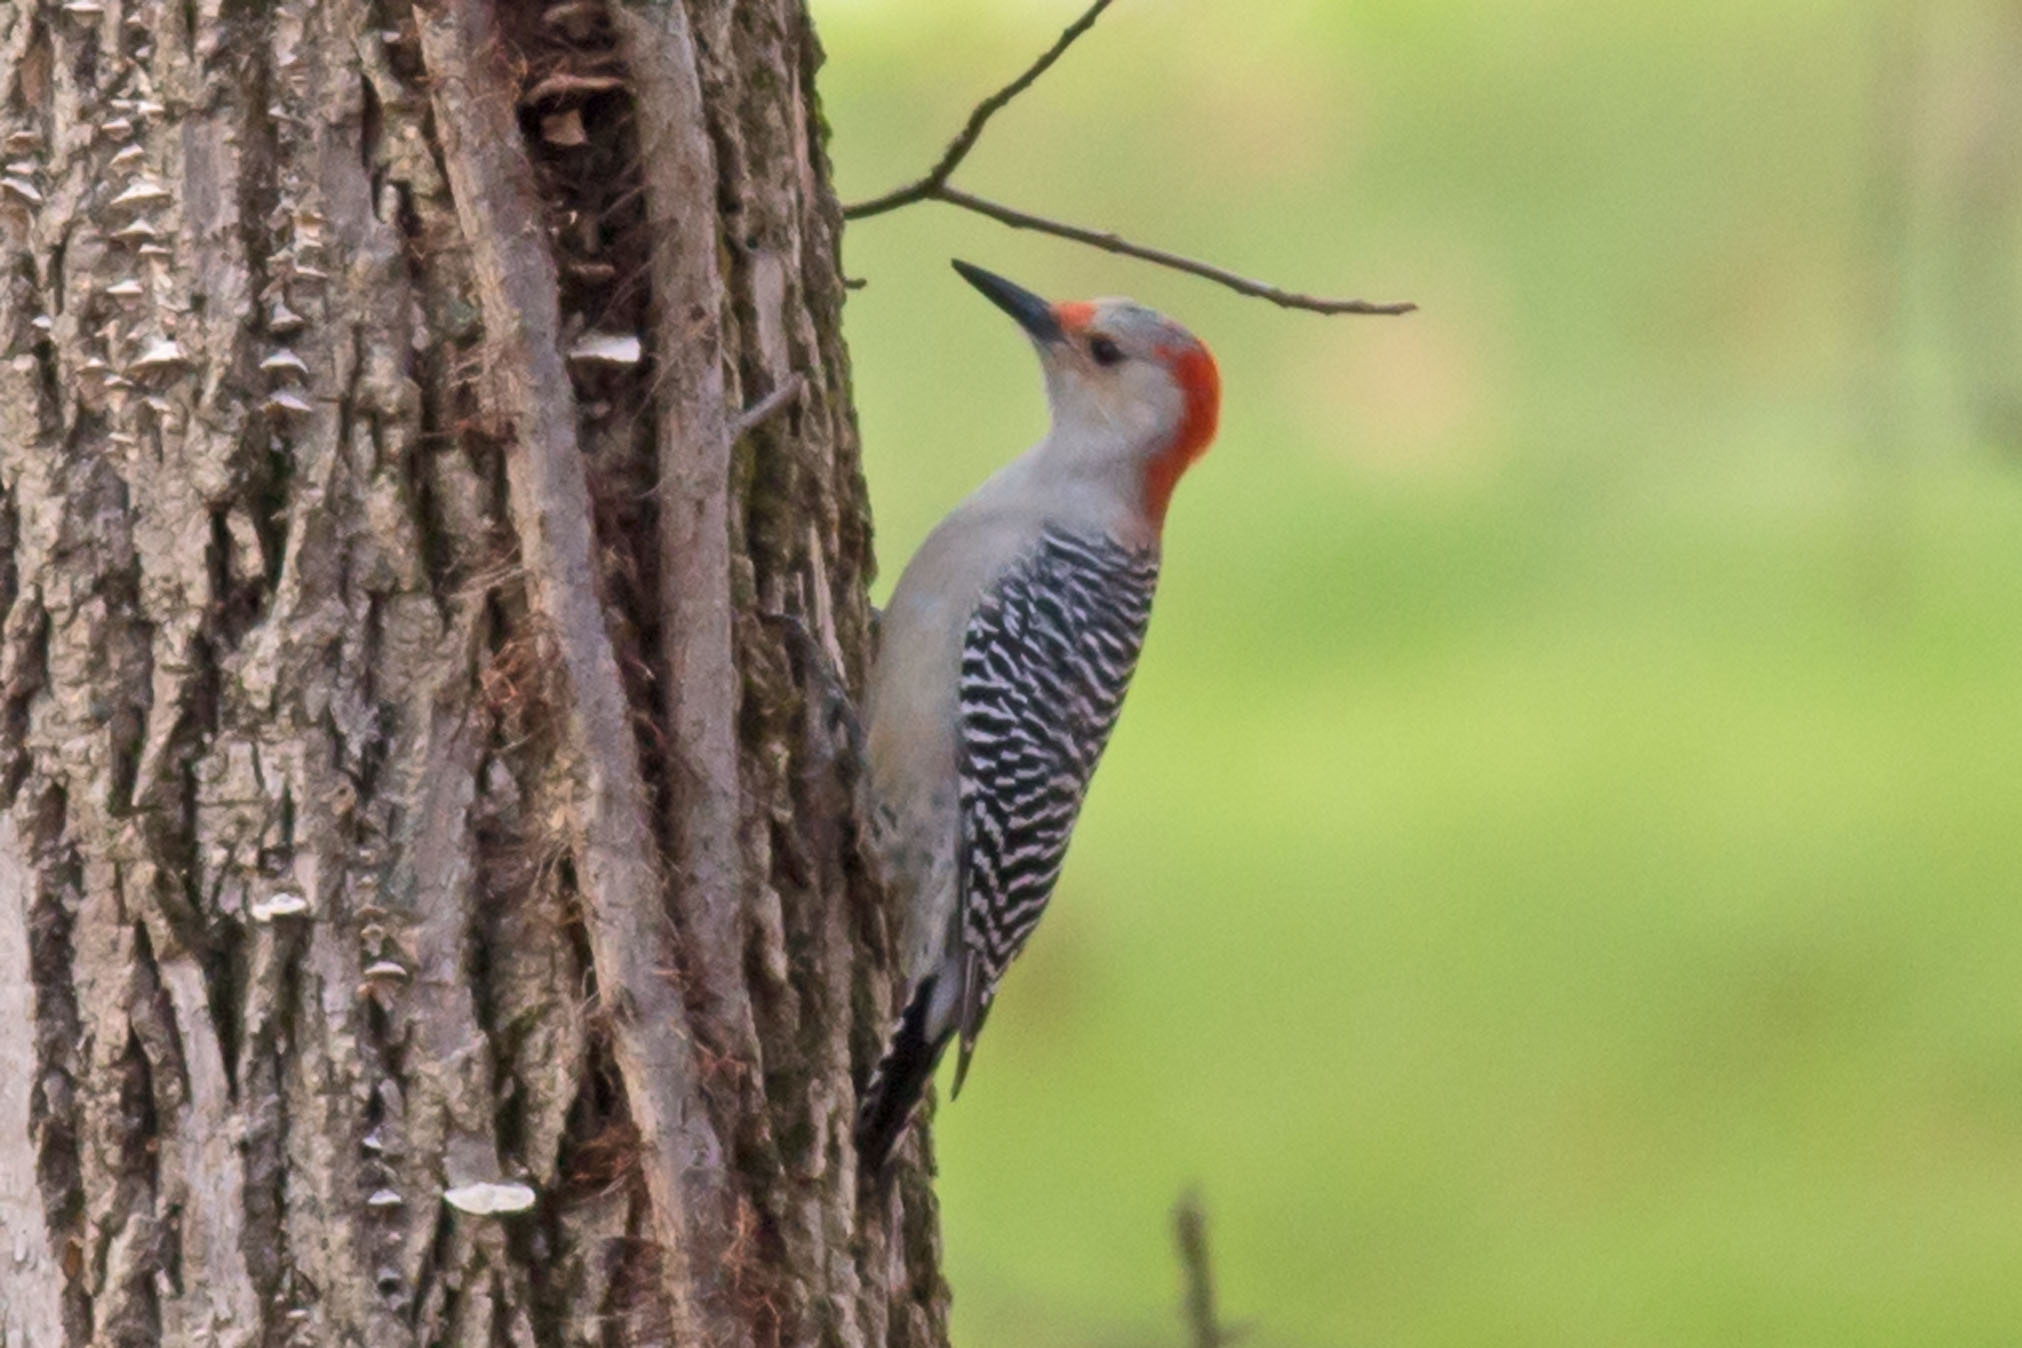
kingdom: Animalia
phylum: Chordata
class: Aves
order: Piciformes
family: Picidae
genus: Melanerpes
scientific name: Melanerpes carolinus
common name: Red-bellied woodpecker
